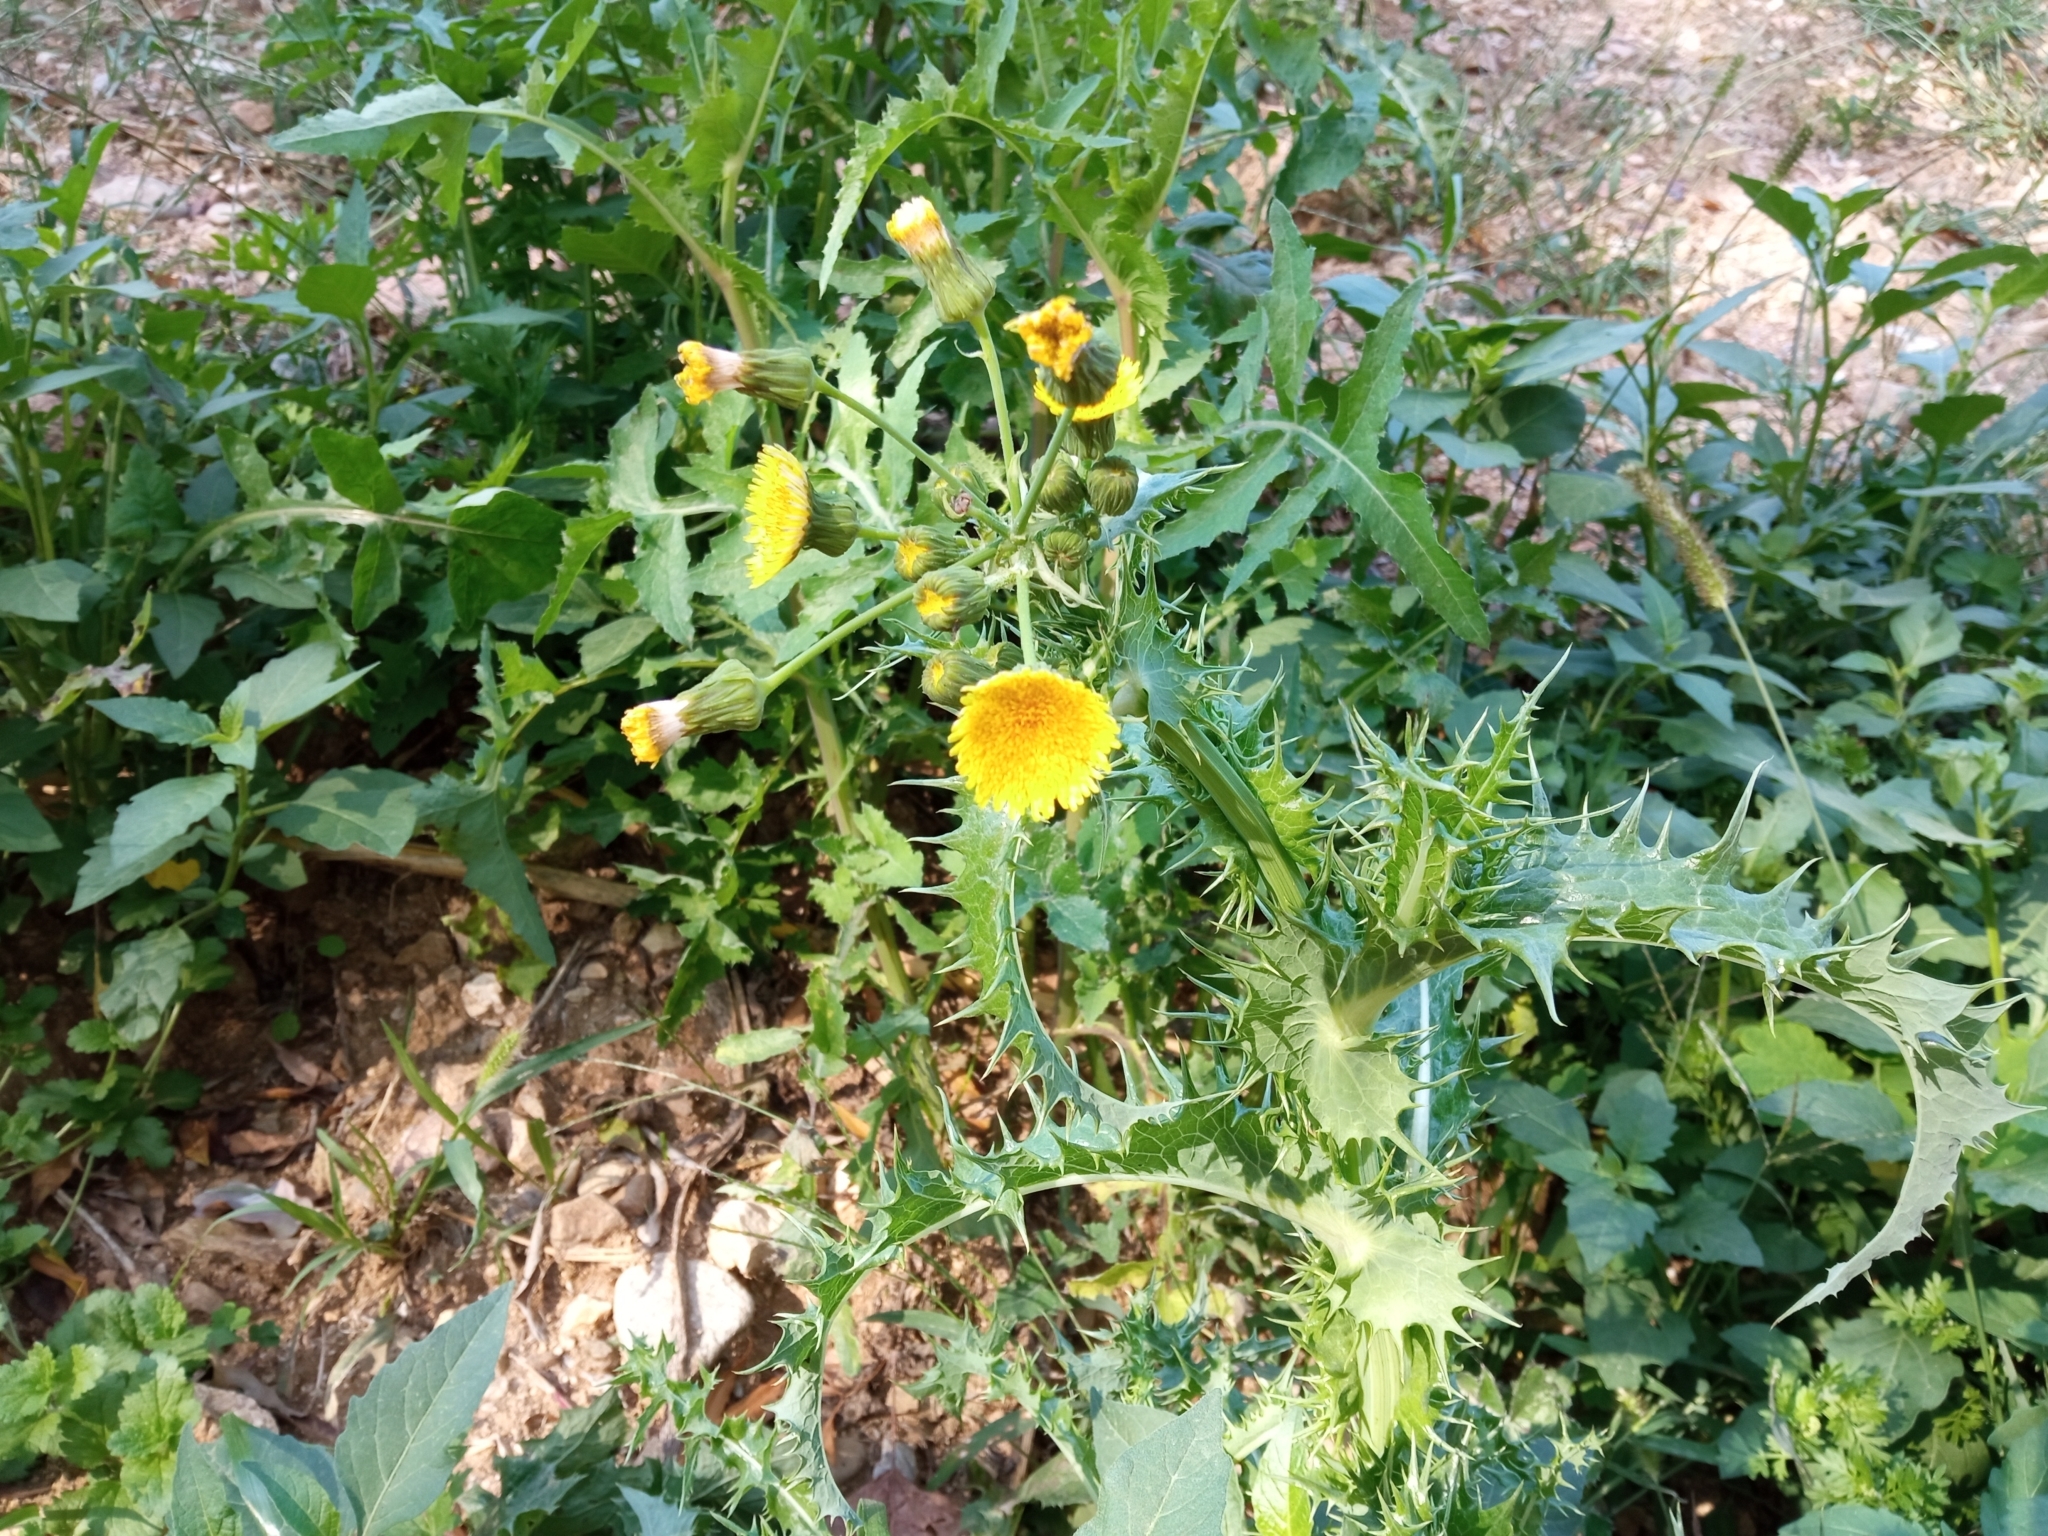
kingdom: Plantae
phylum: Tracheophyta
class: Magnoliopsida
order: Asterales
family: Asteraceae
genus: Sonchus
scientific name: Sonchus asper
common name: Prickly sow-thistle
